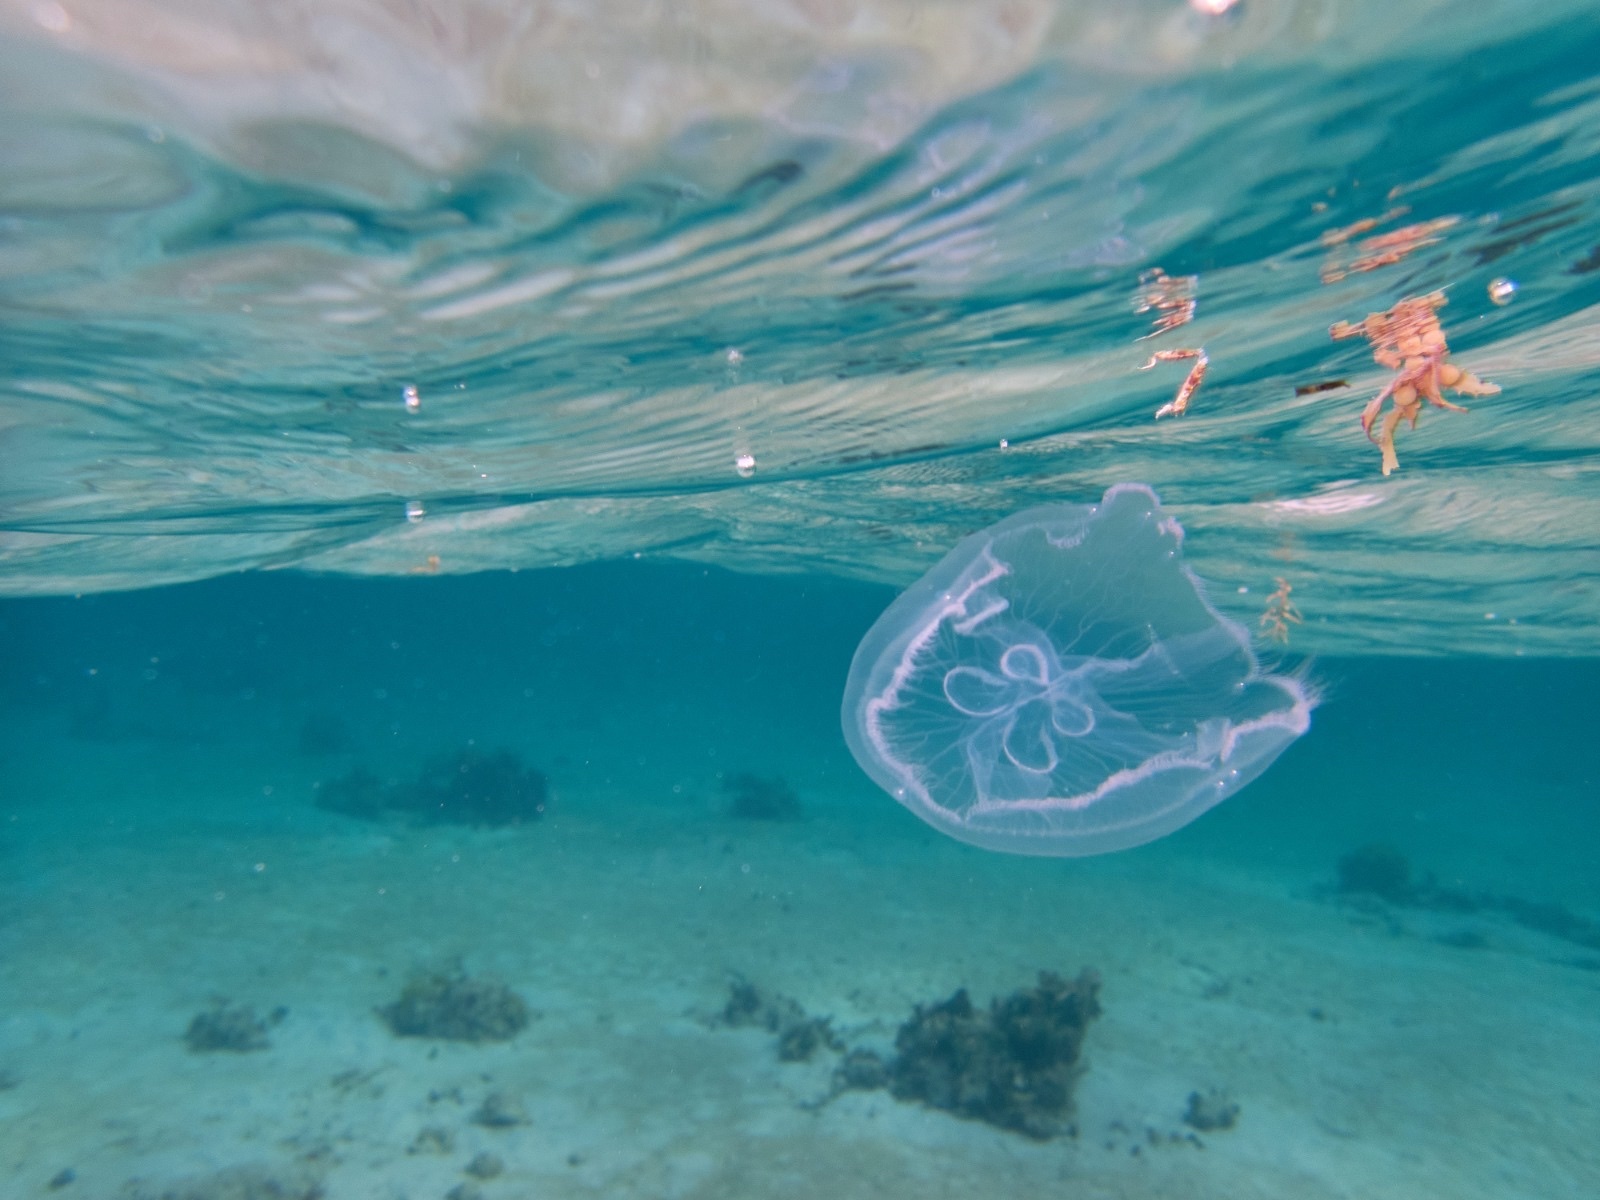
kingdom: Animalia
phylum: Cnidaria
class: Scyphozoa
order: Semaeostomeae
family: Ulmaridae
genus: Aurelia
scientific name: Aurelia marginalis
